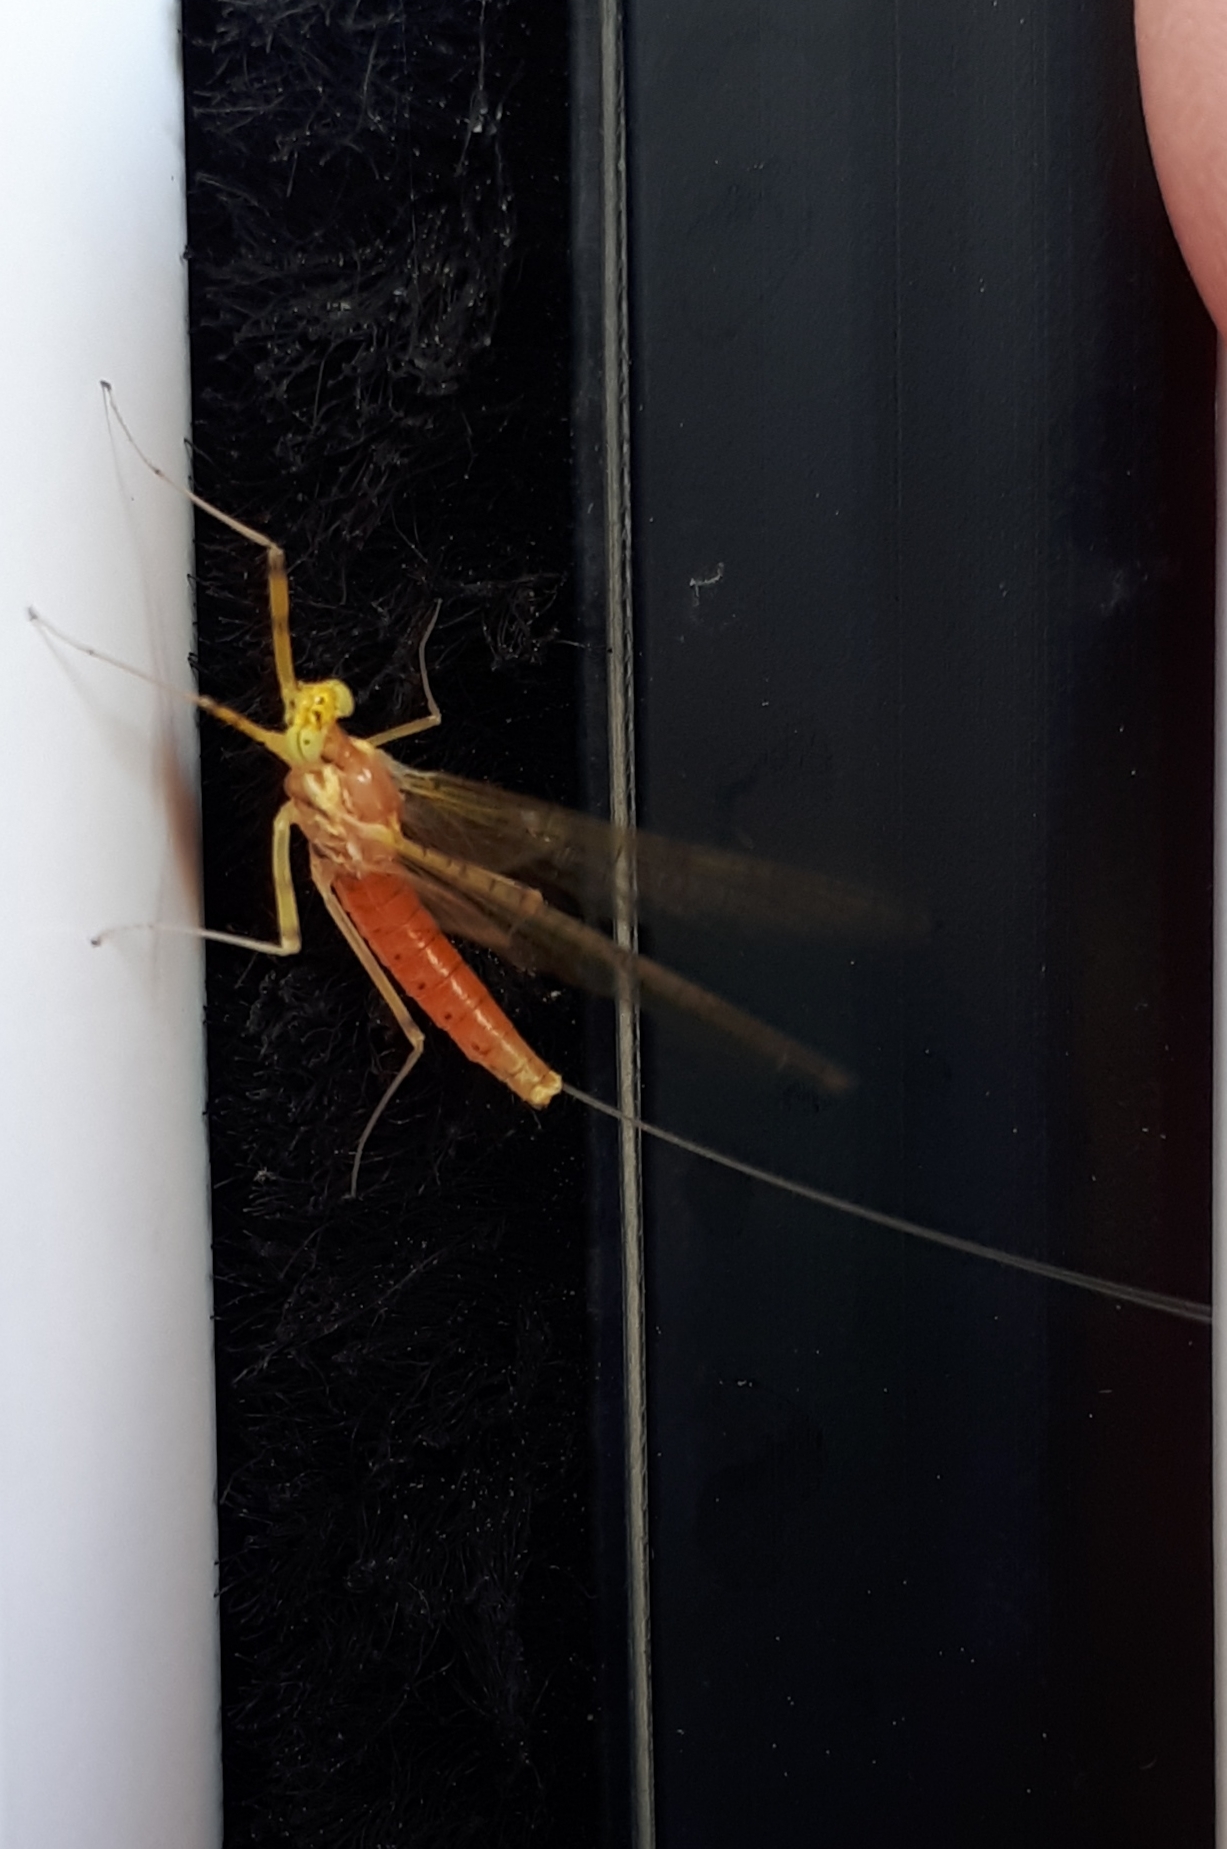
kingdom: Animalia
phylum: Arthropoda
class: Insecta
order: Ephemeroptera
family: Heptageniidae
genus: Stenacron
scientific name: Stenacron interpunctatum
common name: Orange cahill
